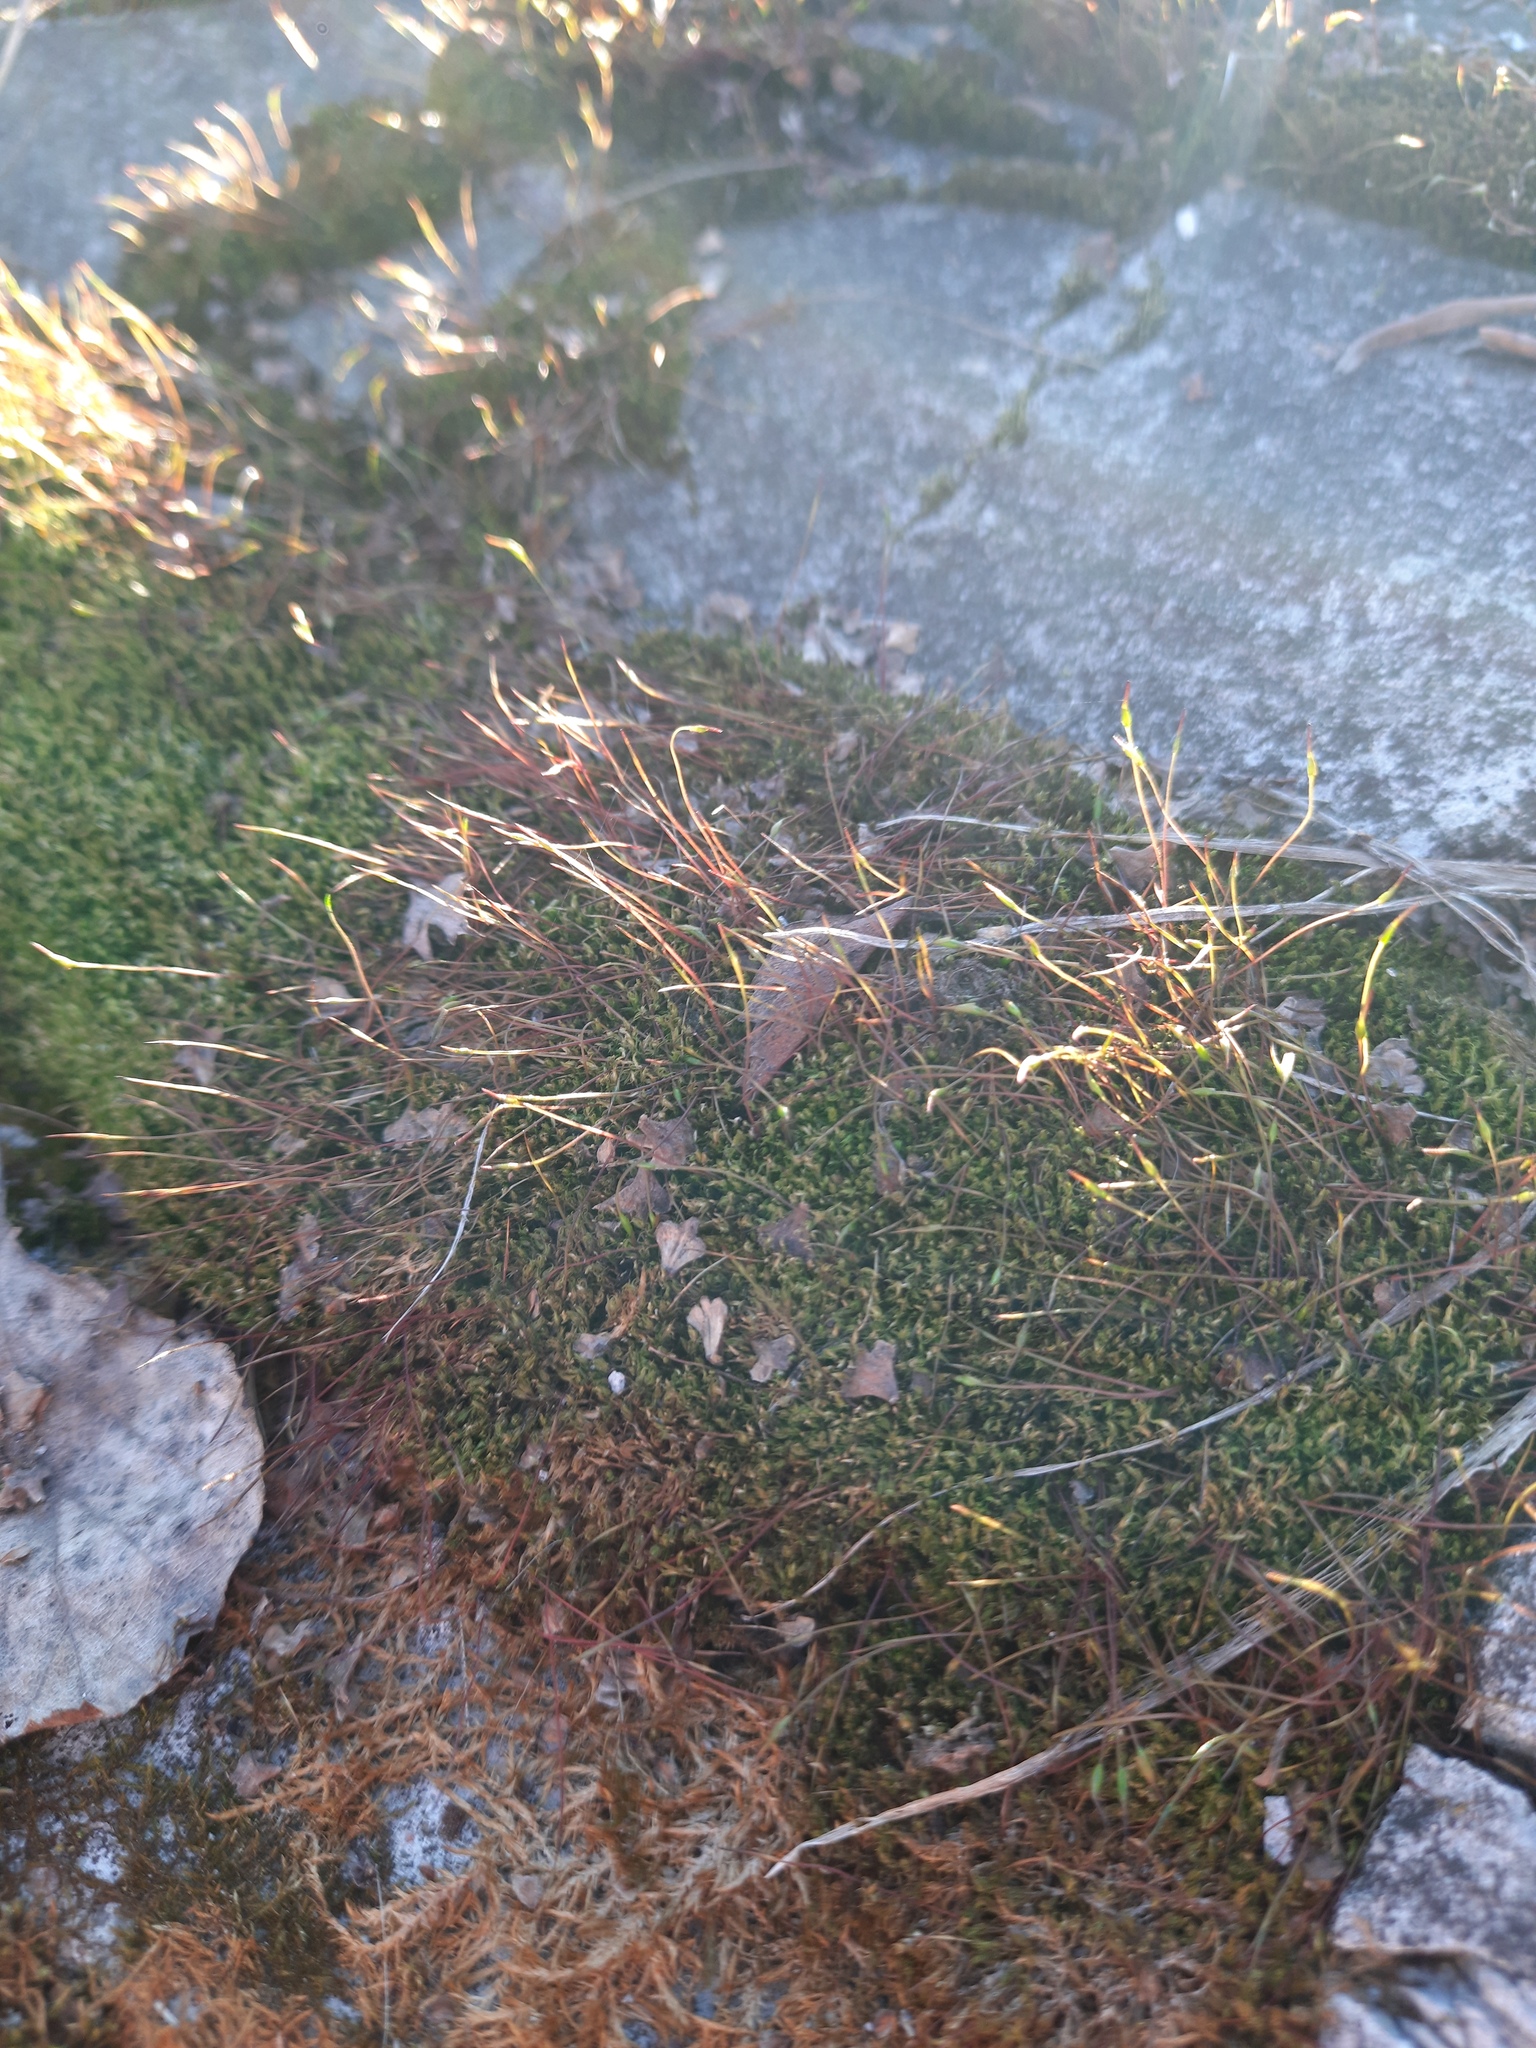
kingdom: Plantae
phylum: Bryophyta
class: Bryopsida
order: Dicranales
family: Ditrichaceae
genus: Ceratodon
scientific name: Ceratodon purpureus
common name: Redshank
